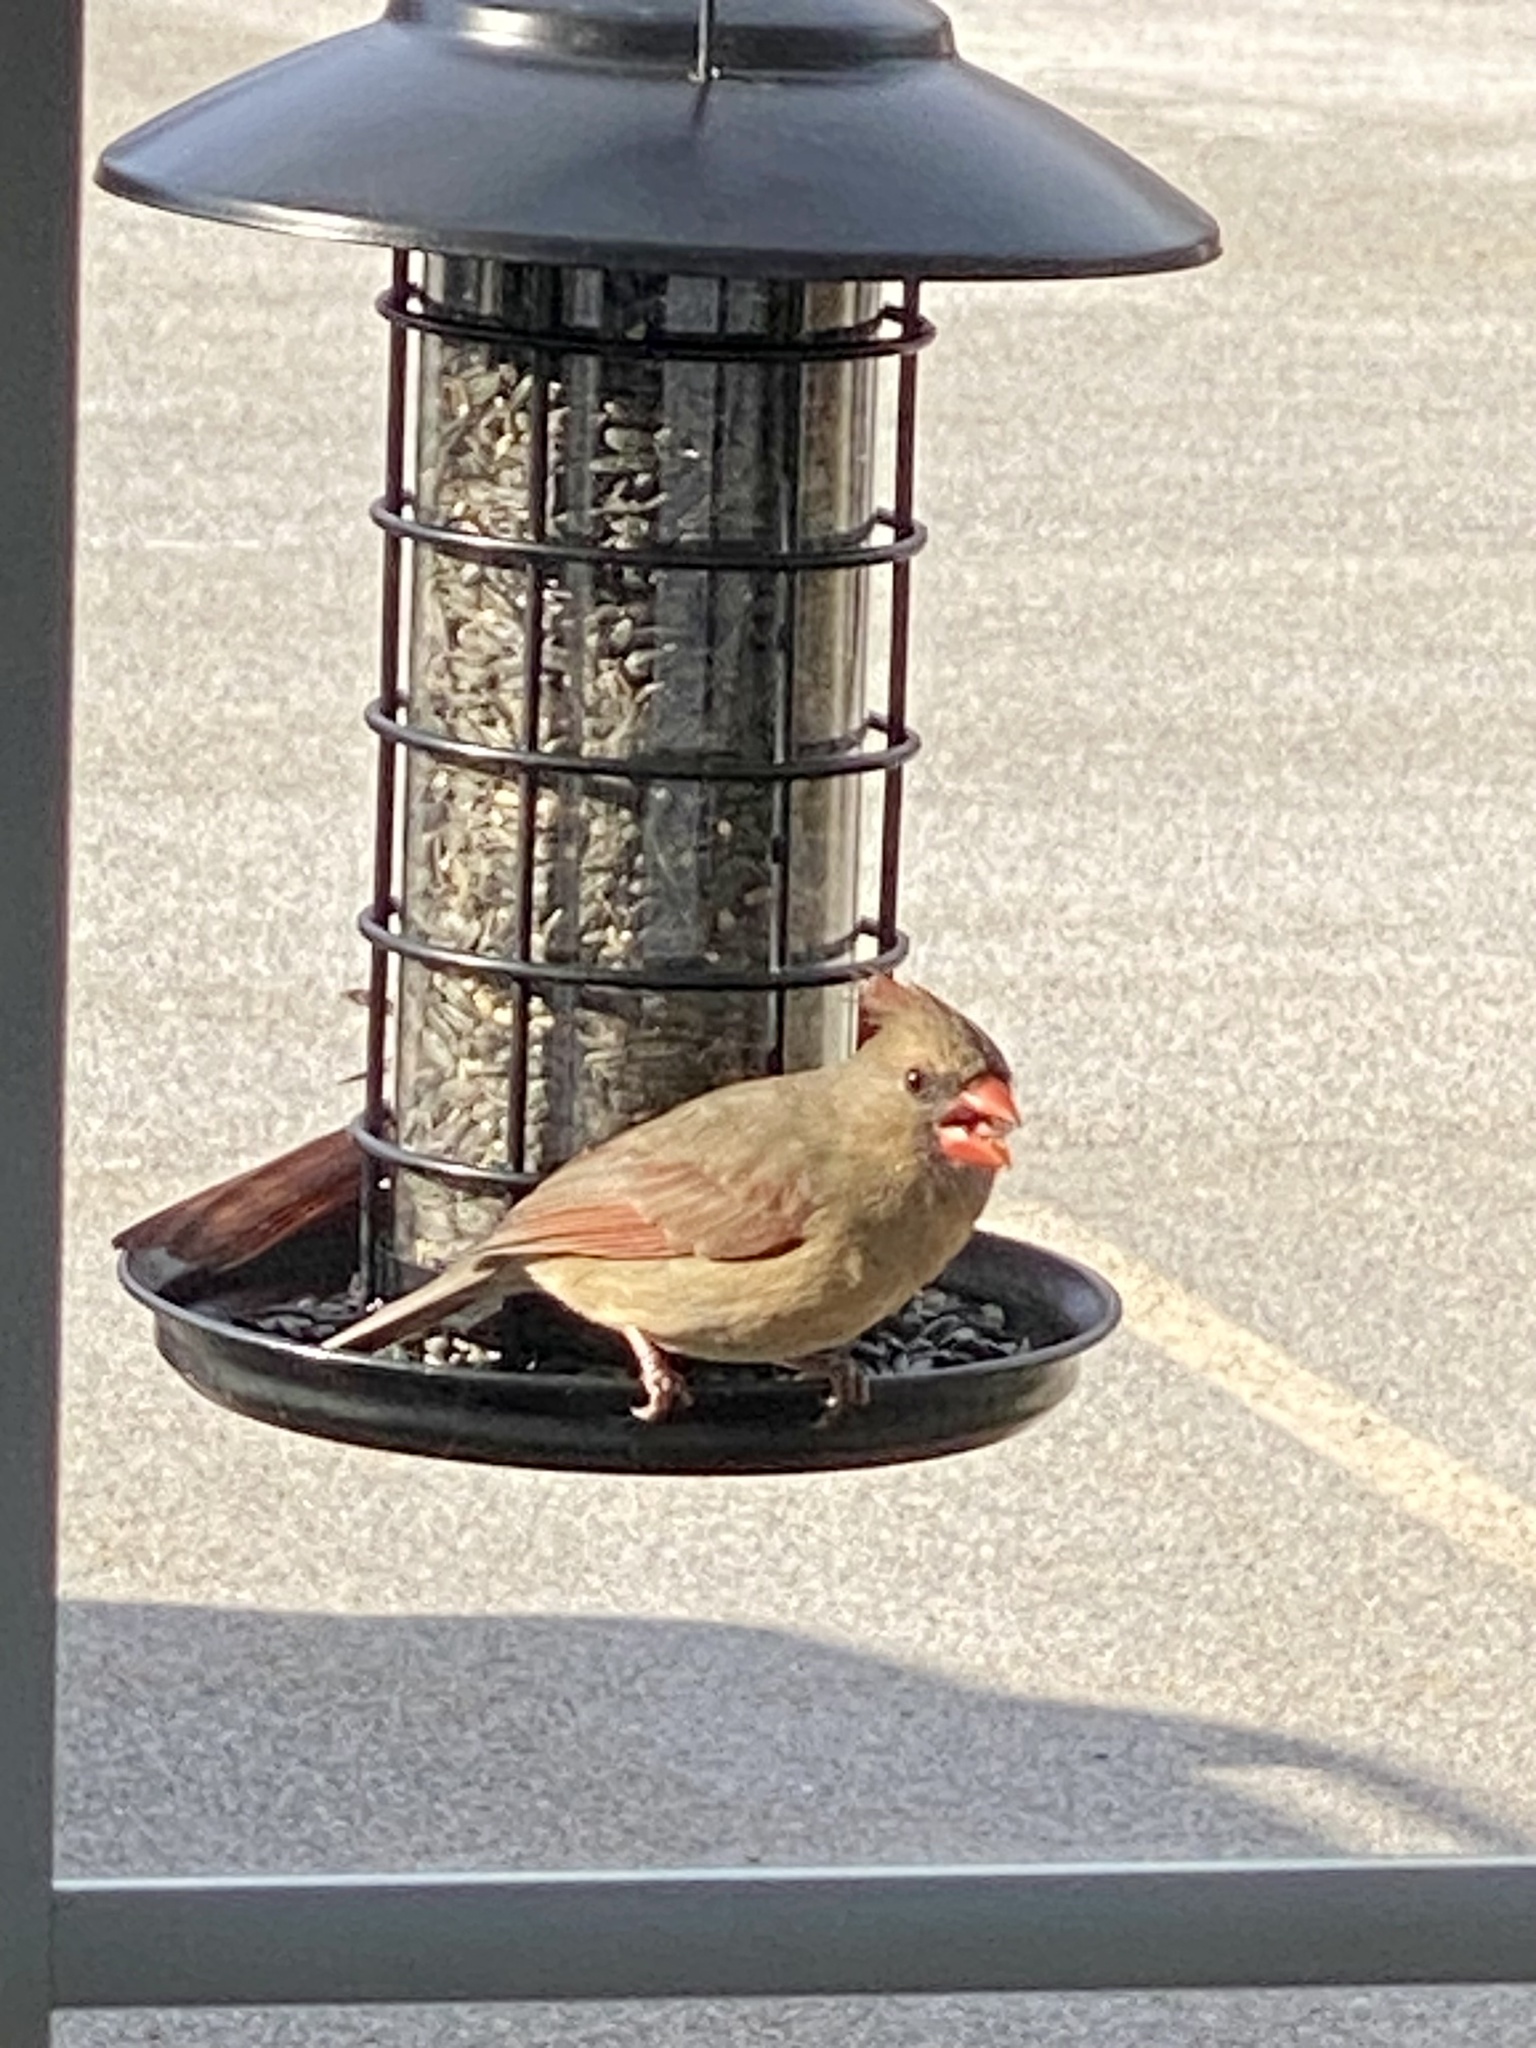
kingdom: Animalia
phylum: Chordata
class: Aves
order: Passeriformes
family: Cardinalidae
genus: Cardinalis
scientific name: Cardinalis cardinalis
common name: Northern cardinal
